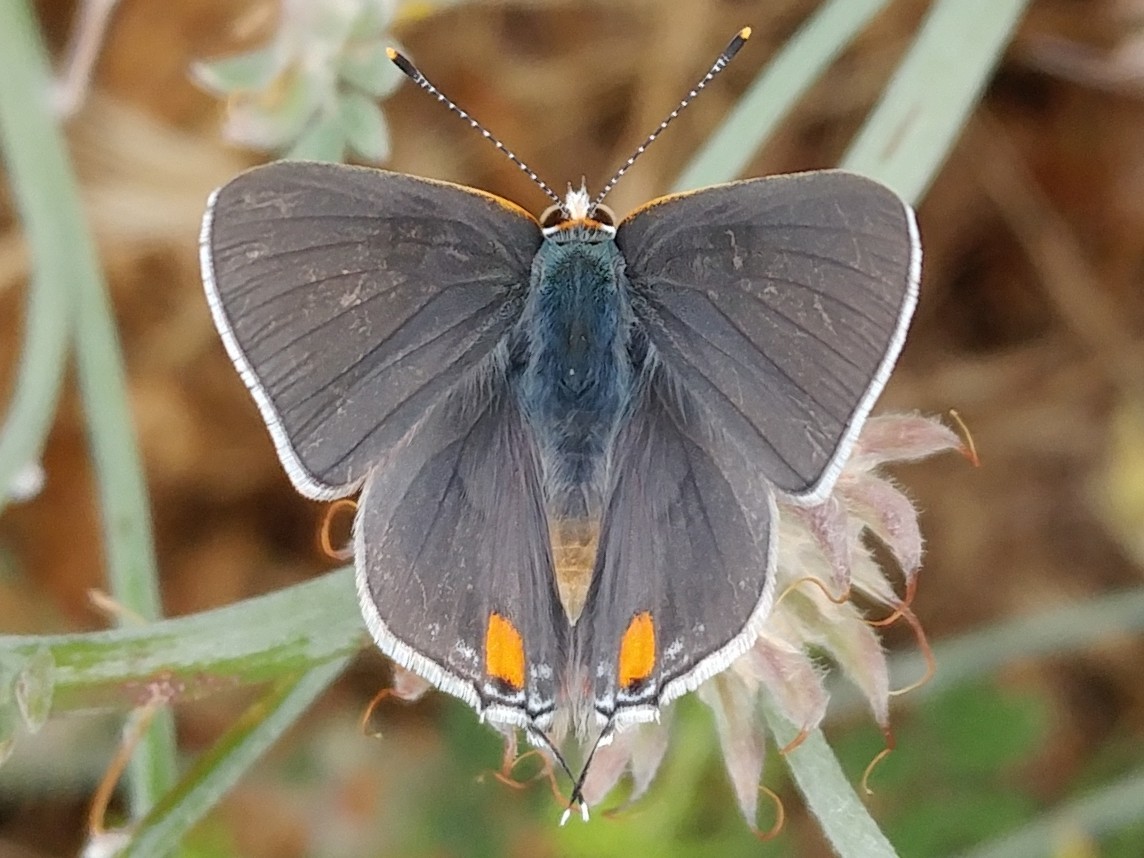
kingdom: Animalia
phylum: Arthropoda
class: Insecta
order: Lepidoptera
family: Lycaenidae
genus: Strymon
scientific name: Strymon melinus
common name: Gray hairstreak
